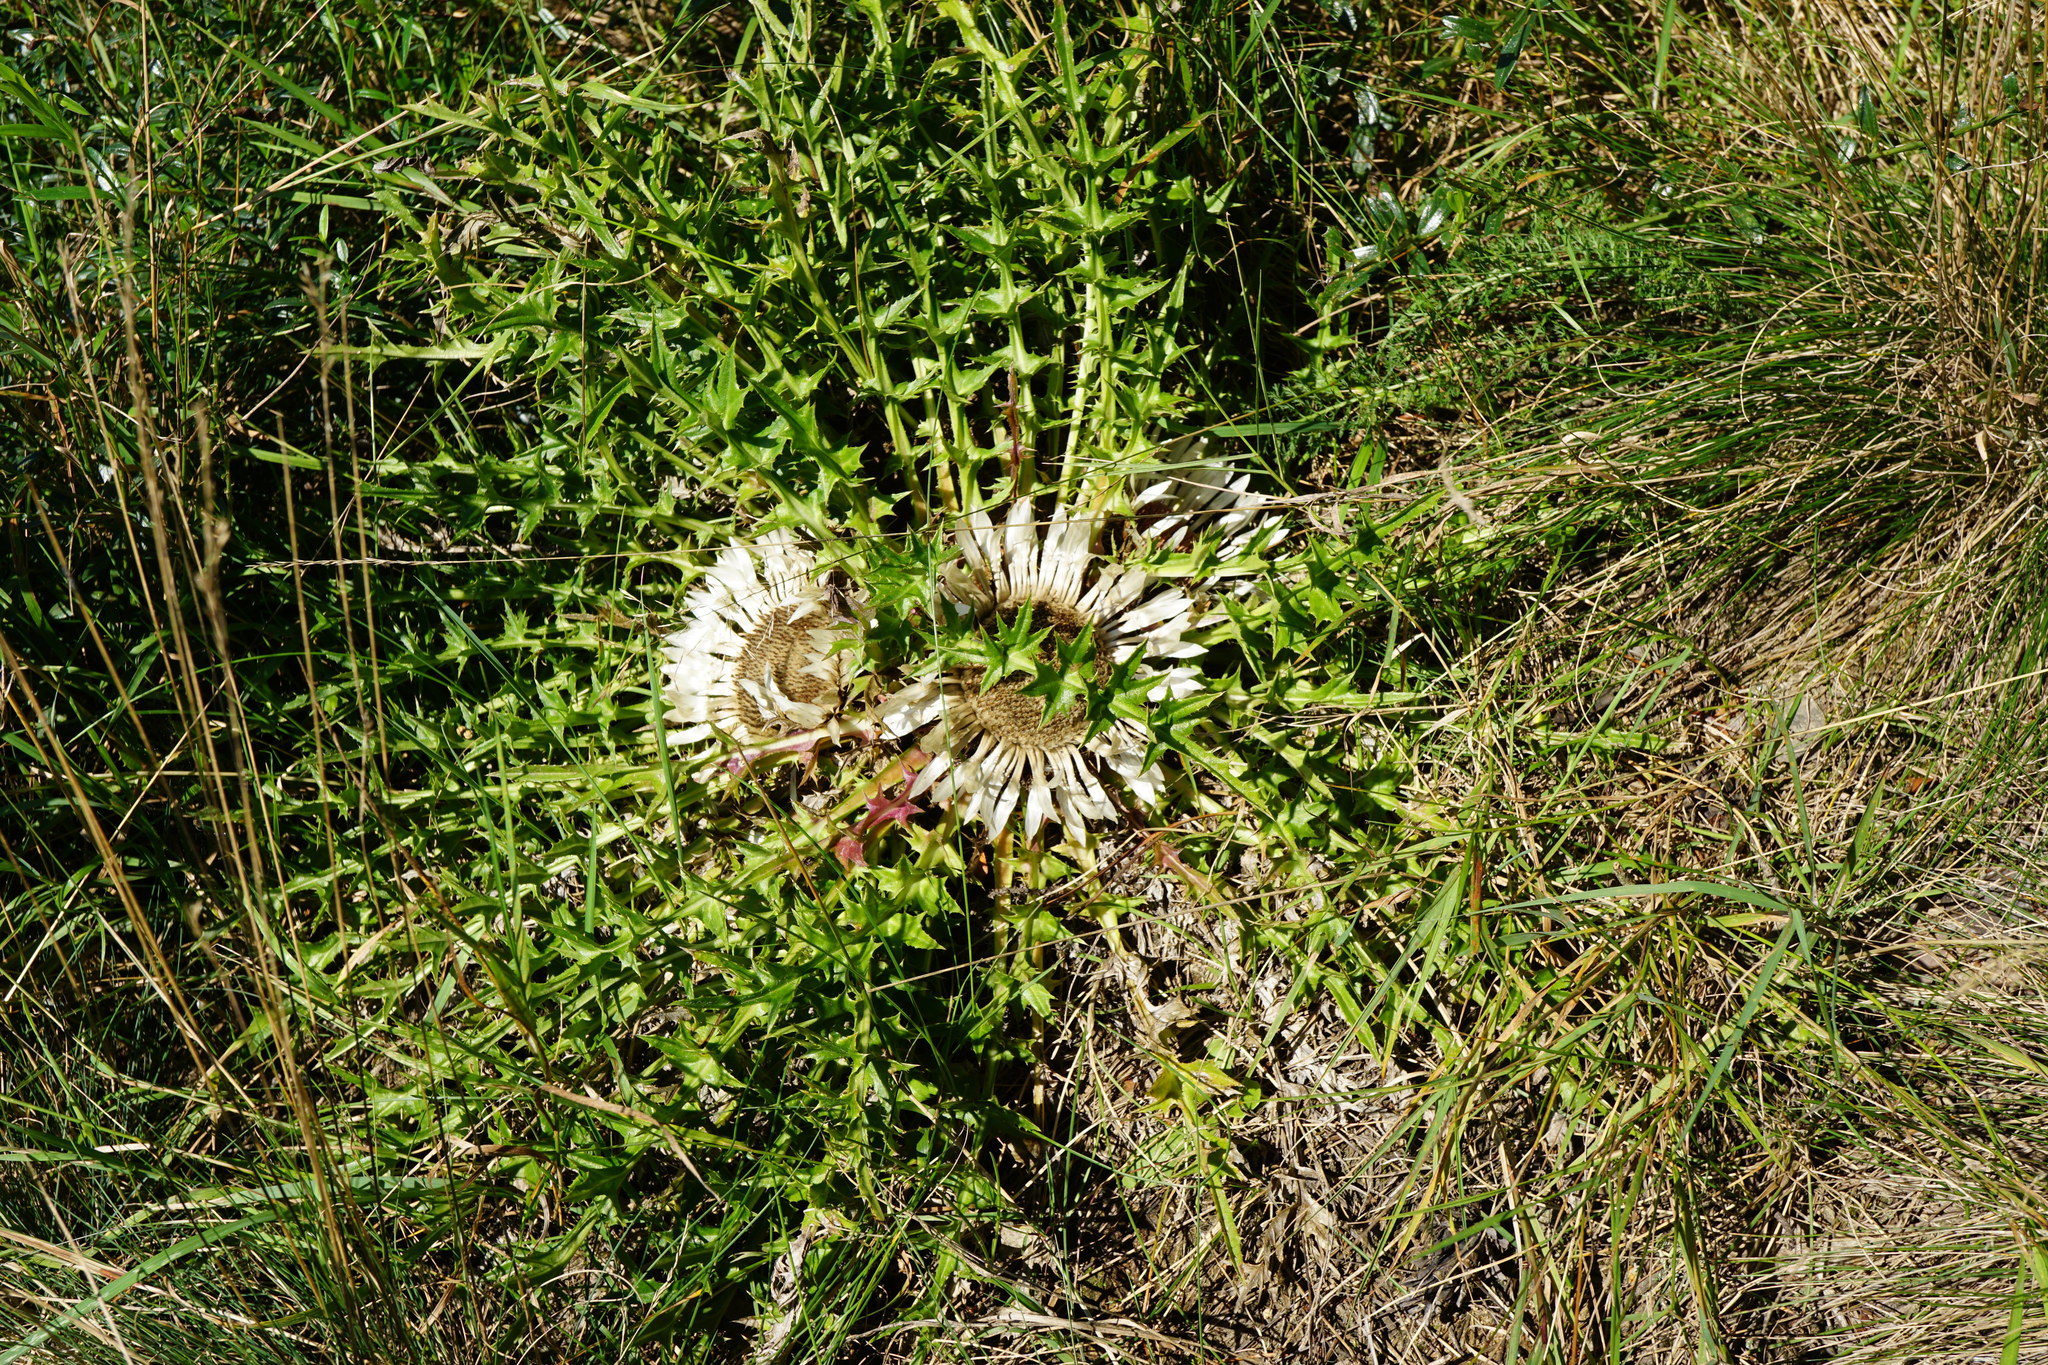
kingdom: Plantae
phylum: Tracheophyta
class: Magnoliopsida
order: Asterales
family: Asteraceae
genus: Carlina
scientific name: Carlina acaulis
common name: Stemless carline thistle
